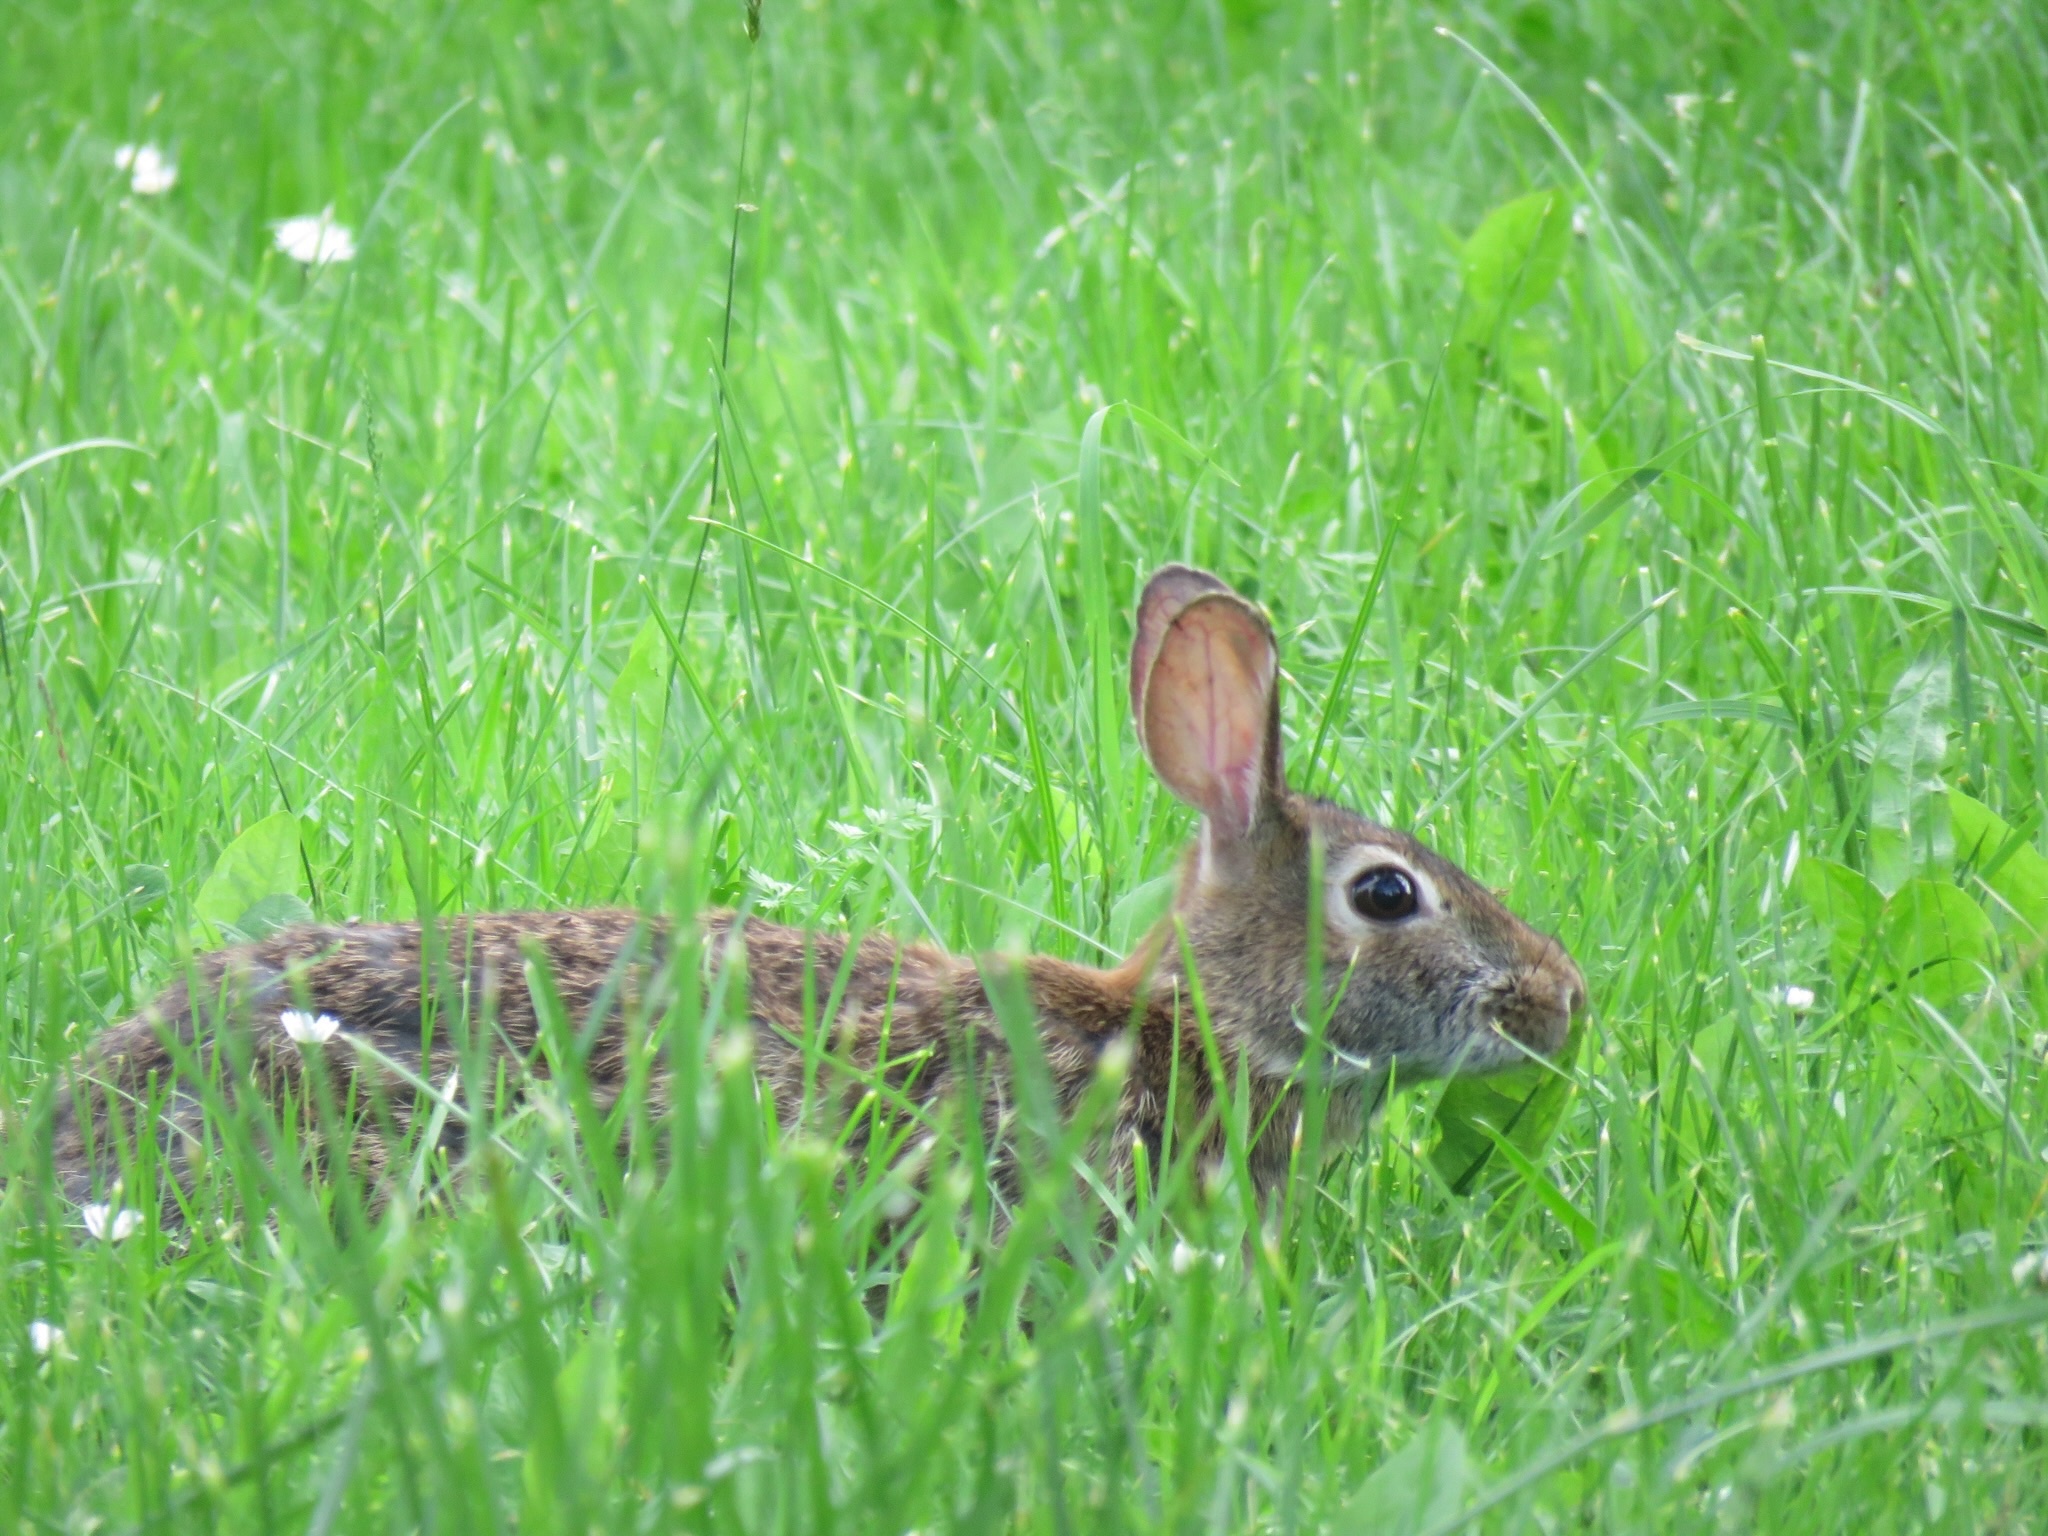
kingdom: Animalia
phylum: Chordata
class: Mammalia
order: Lagomorpha
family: Leporidae
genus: Sylvilagus
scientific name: Sylvilagus floridanus
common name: Eastern cottontail
